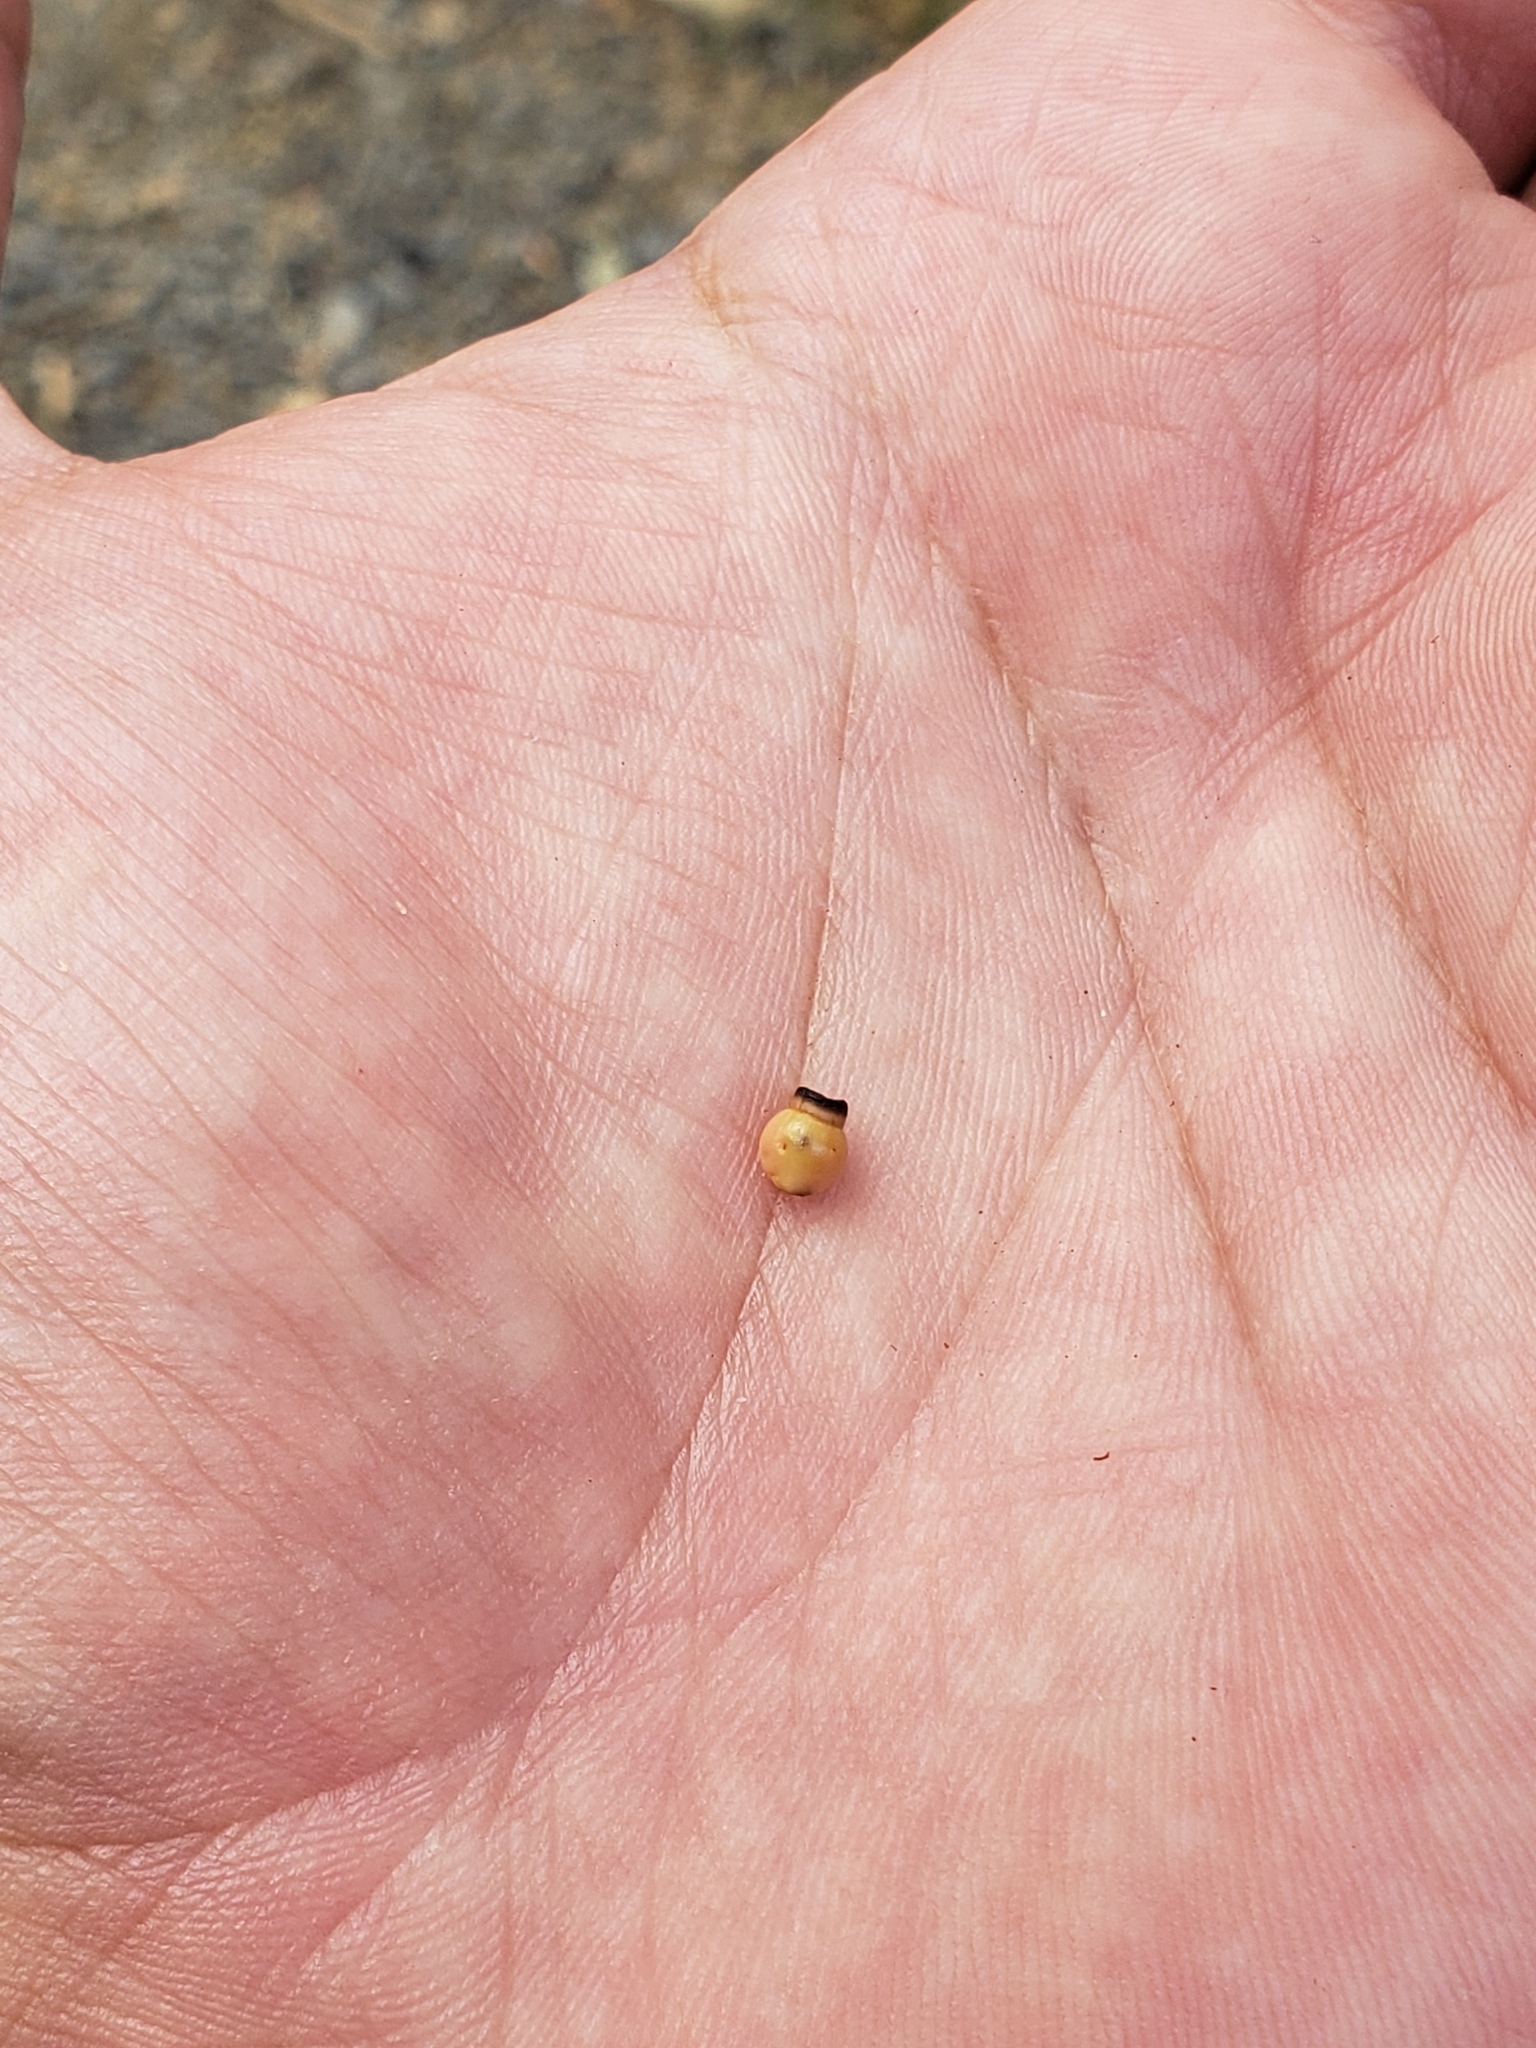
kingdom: Animalia
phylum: Arthropoda
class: Insecta
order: Hymenoptera
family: Cynipidae
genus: Kokkocynips
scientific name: Kokkocynips rileyi
